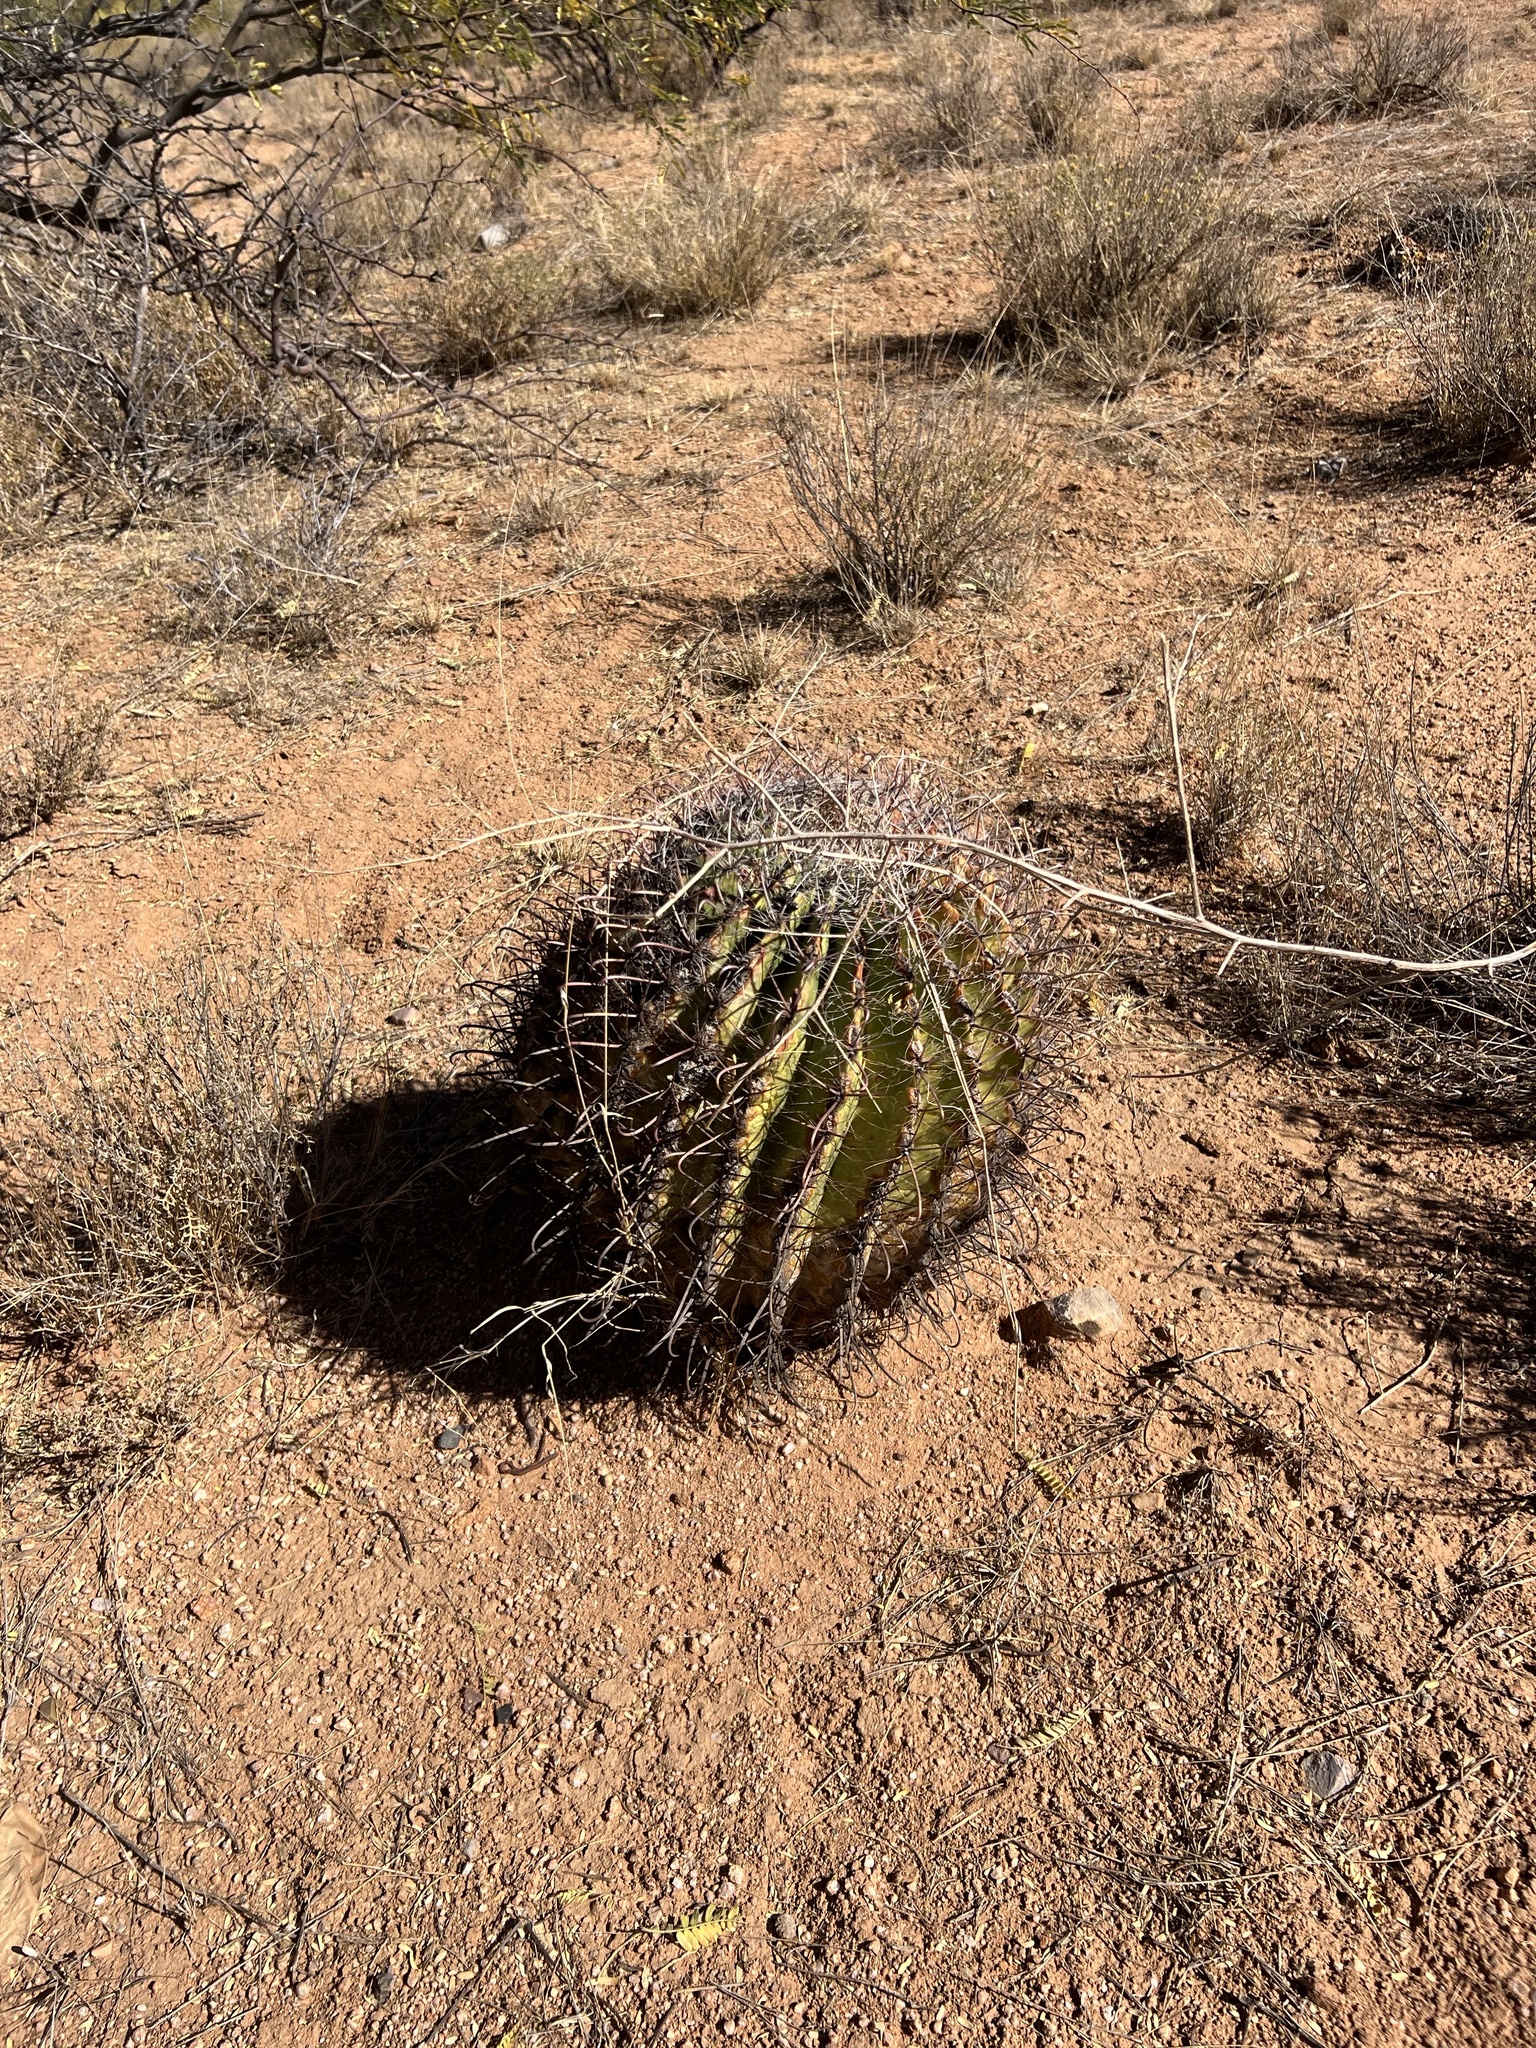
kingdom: Plantae
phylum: Tracheophyta
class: Magnoliopsida
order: Caryophyllales
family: Cactaceae
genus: Ferocactus
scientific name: Ferocactus wislizeni
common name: Candy barrel cactus
